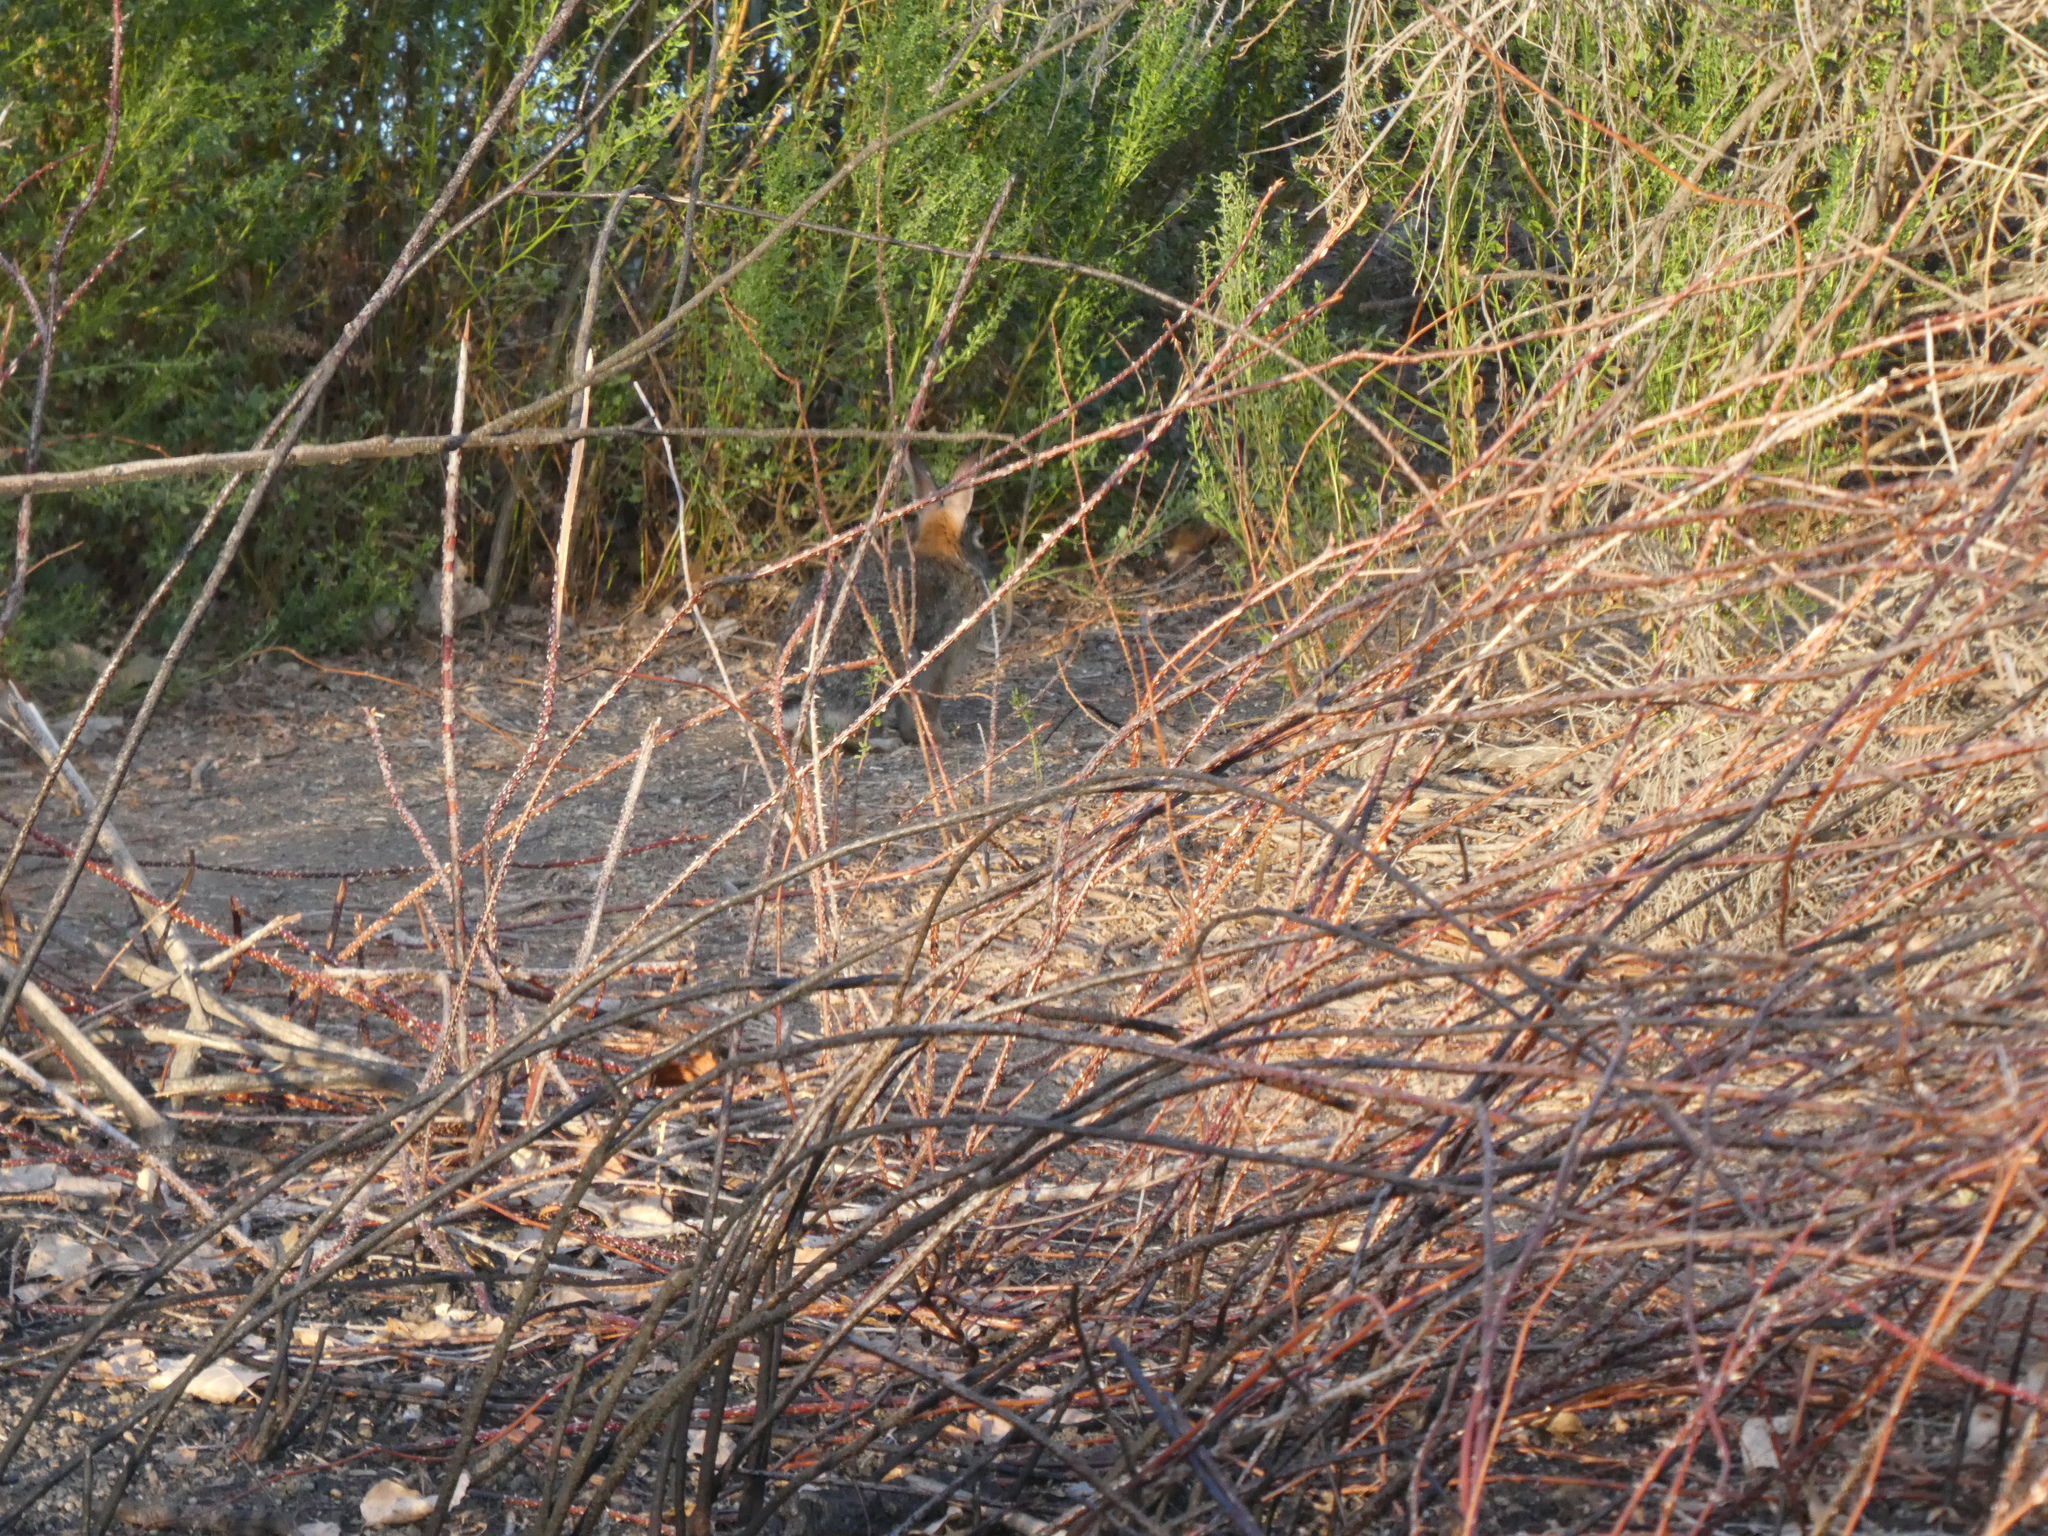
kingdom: Animalia
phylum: Chordata
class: Mammalia
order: Lagomorpha
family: Leporidae
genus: Sylvilagus
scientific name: Sylvilagus audubonii
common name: Desert cottontail
